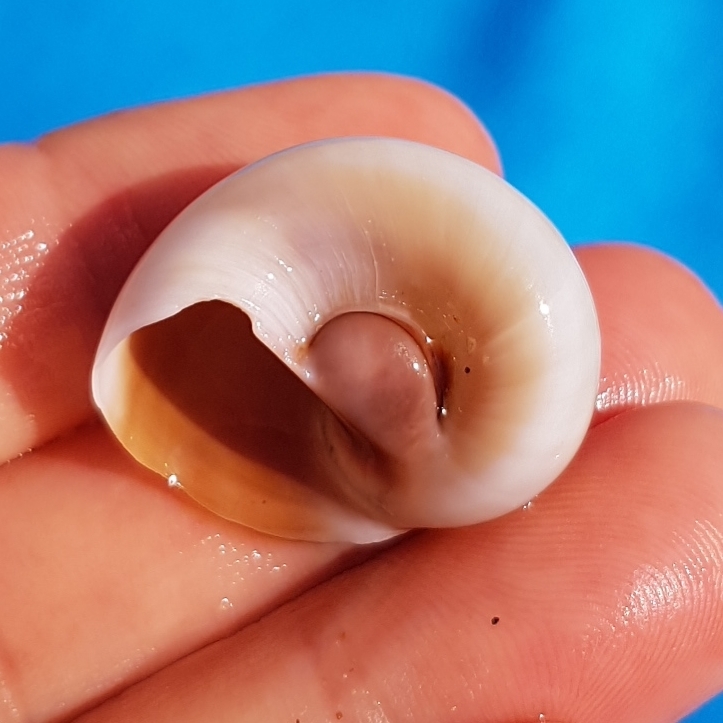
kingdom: Animalia
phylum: Mollusca
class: Gastropoda
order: Littorinimorpha
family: Naticidae
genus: Neverita
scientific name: Neverita josephinia
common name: Josephine's moonsnail
